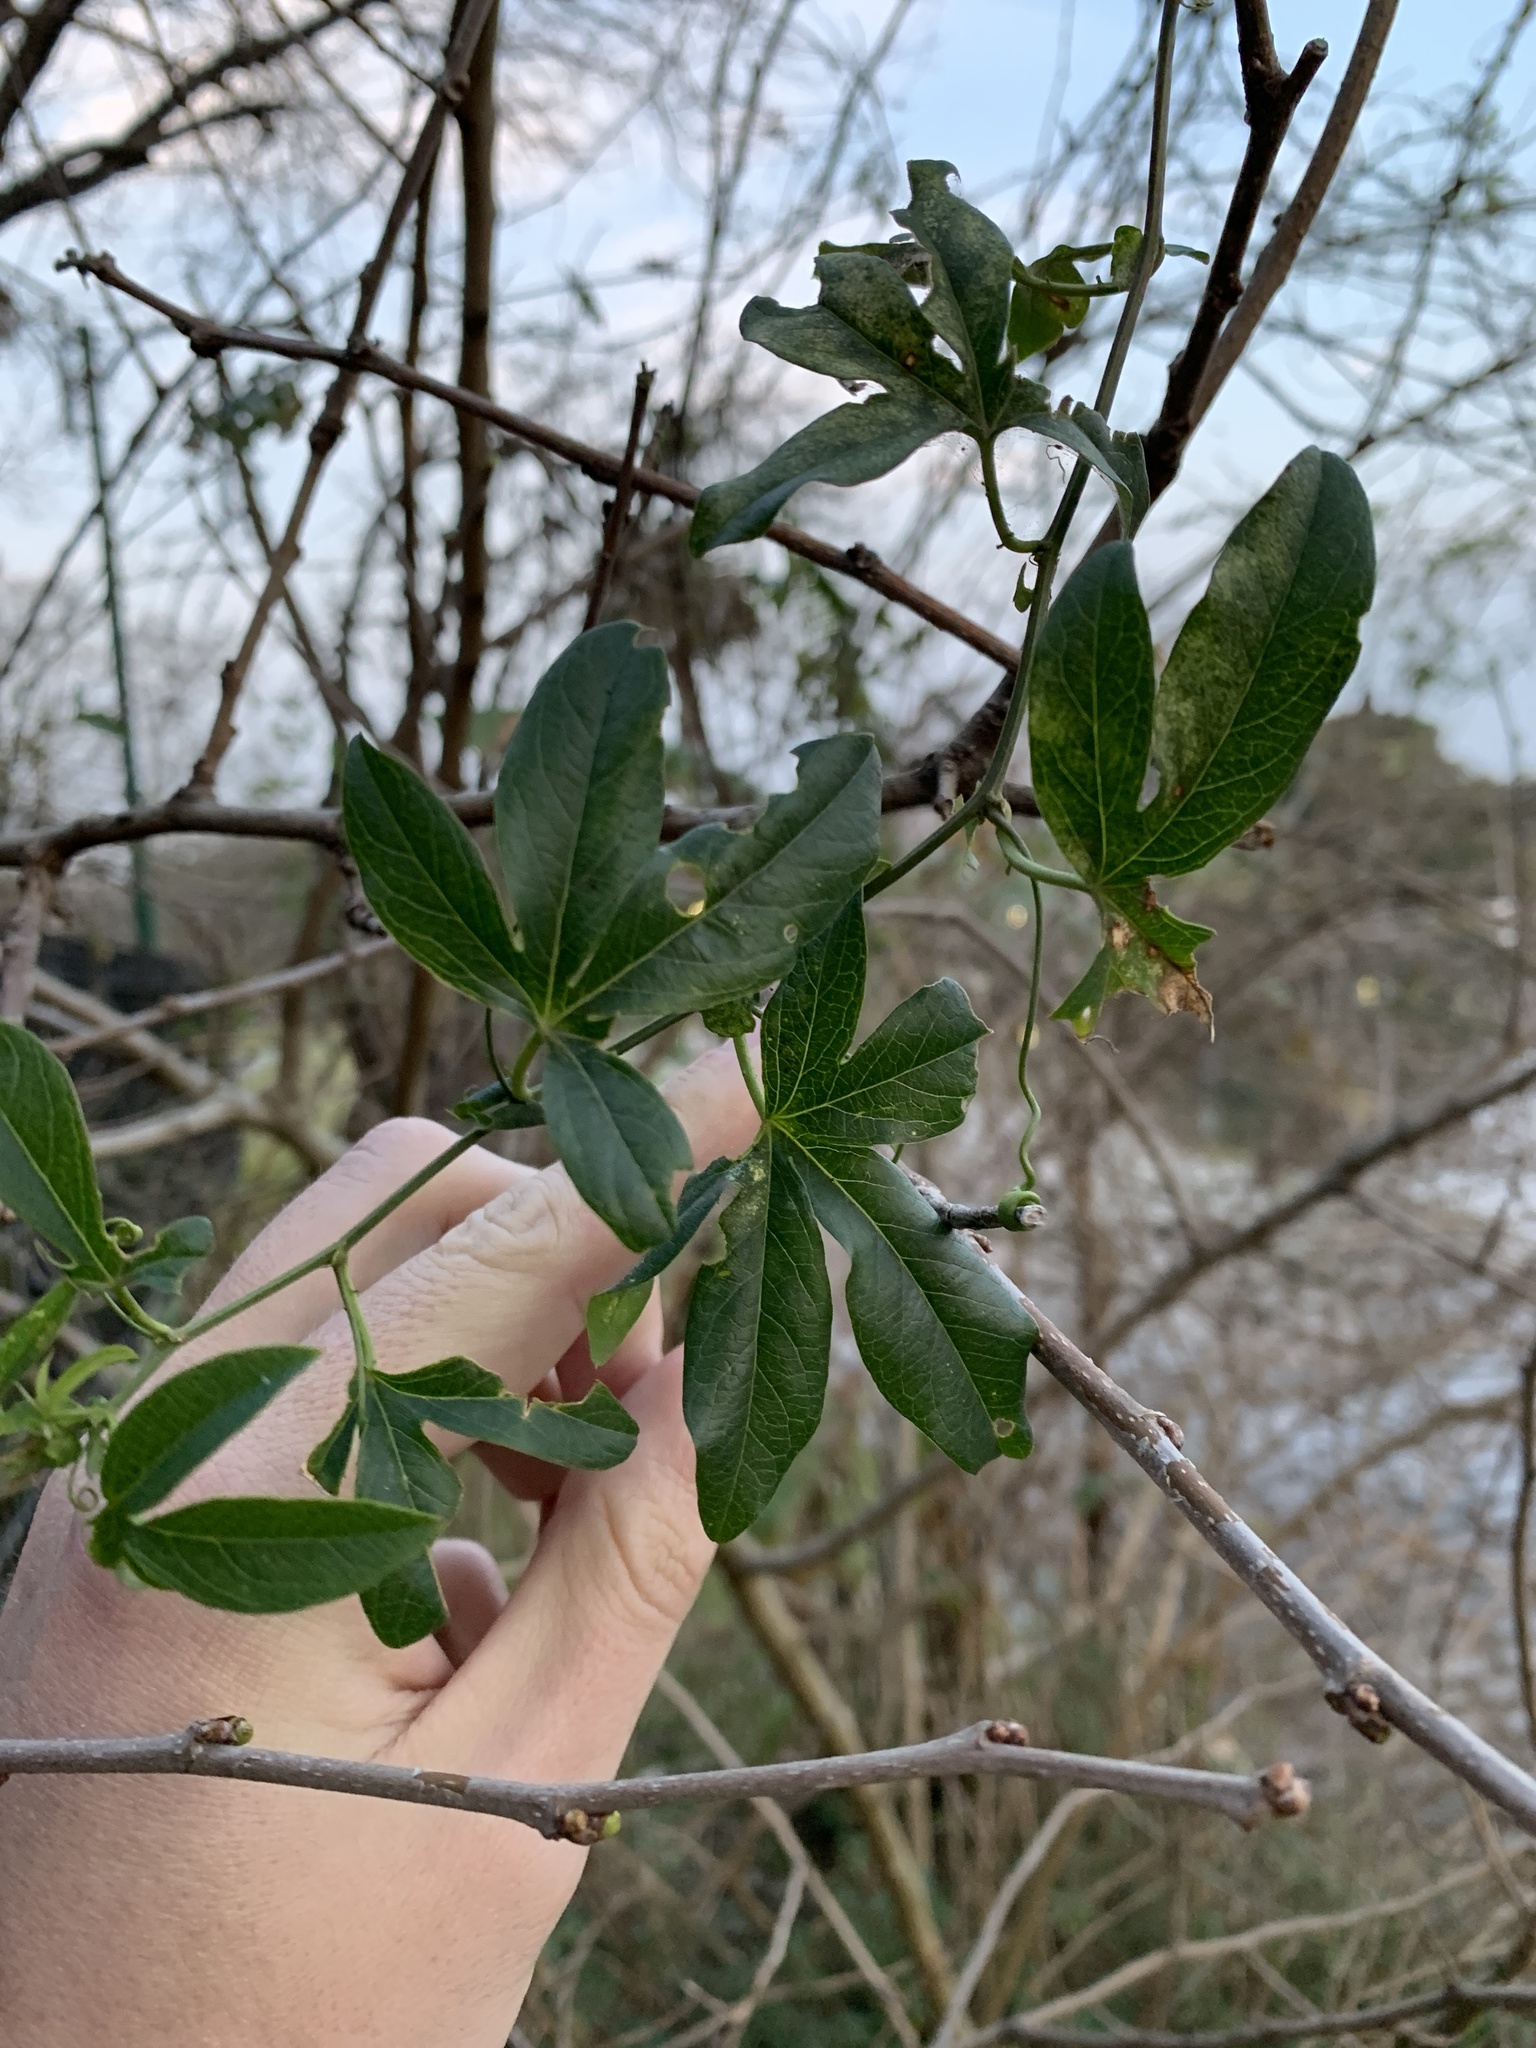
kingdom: Plantae
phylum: Tracheophyta
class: Magnoliopsida
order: Malpighiales
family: Passifloraceae
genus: Passiflora
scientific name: Passiflora caerulea
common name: Blue passionflower
